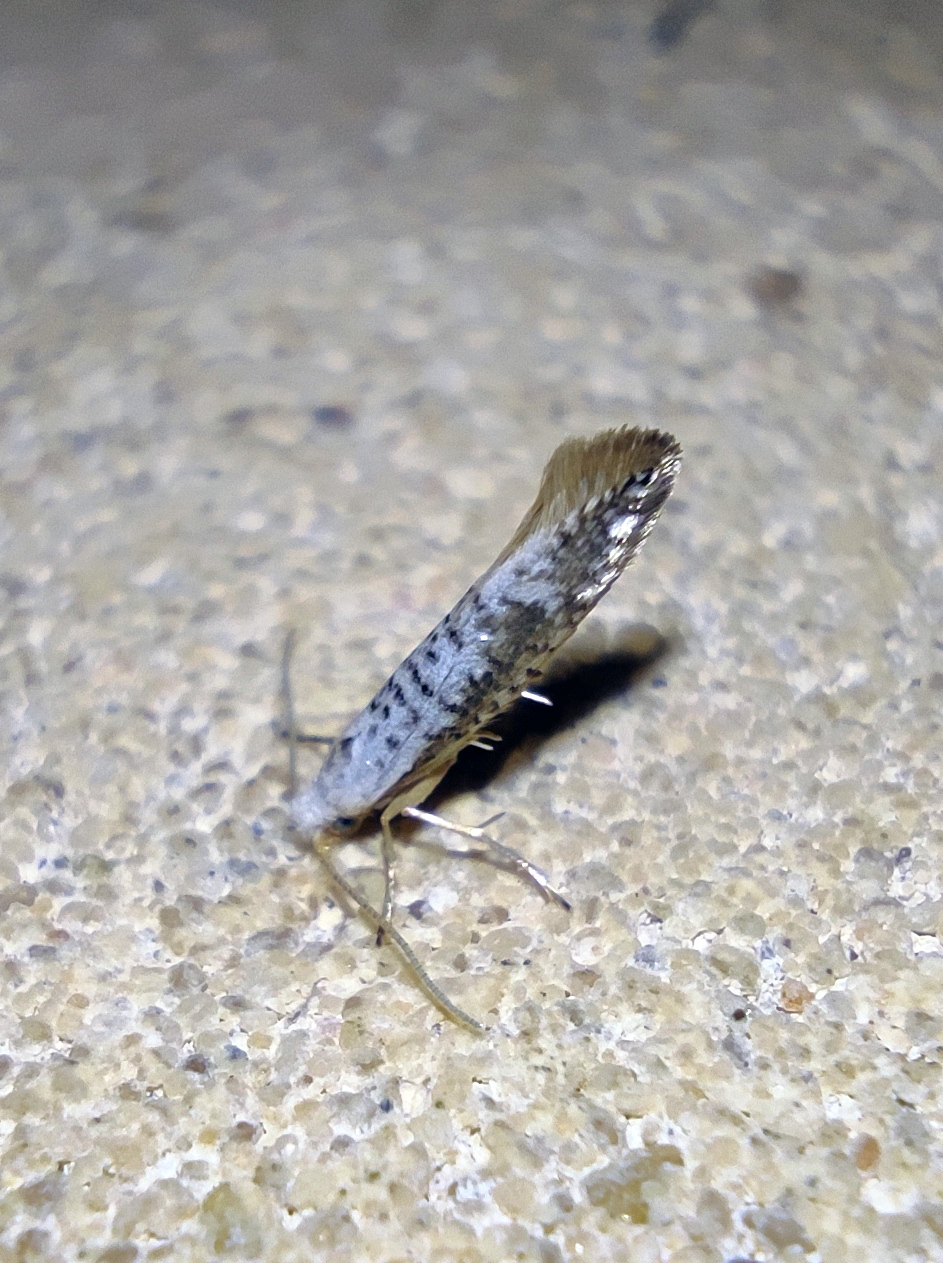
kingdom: Animalia
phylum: Arthropoda
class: Insecta
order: Lepidoptera
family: Argyresthiidae
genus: Argyresthia
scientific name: Argyresthia retinella
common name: Netted argent
